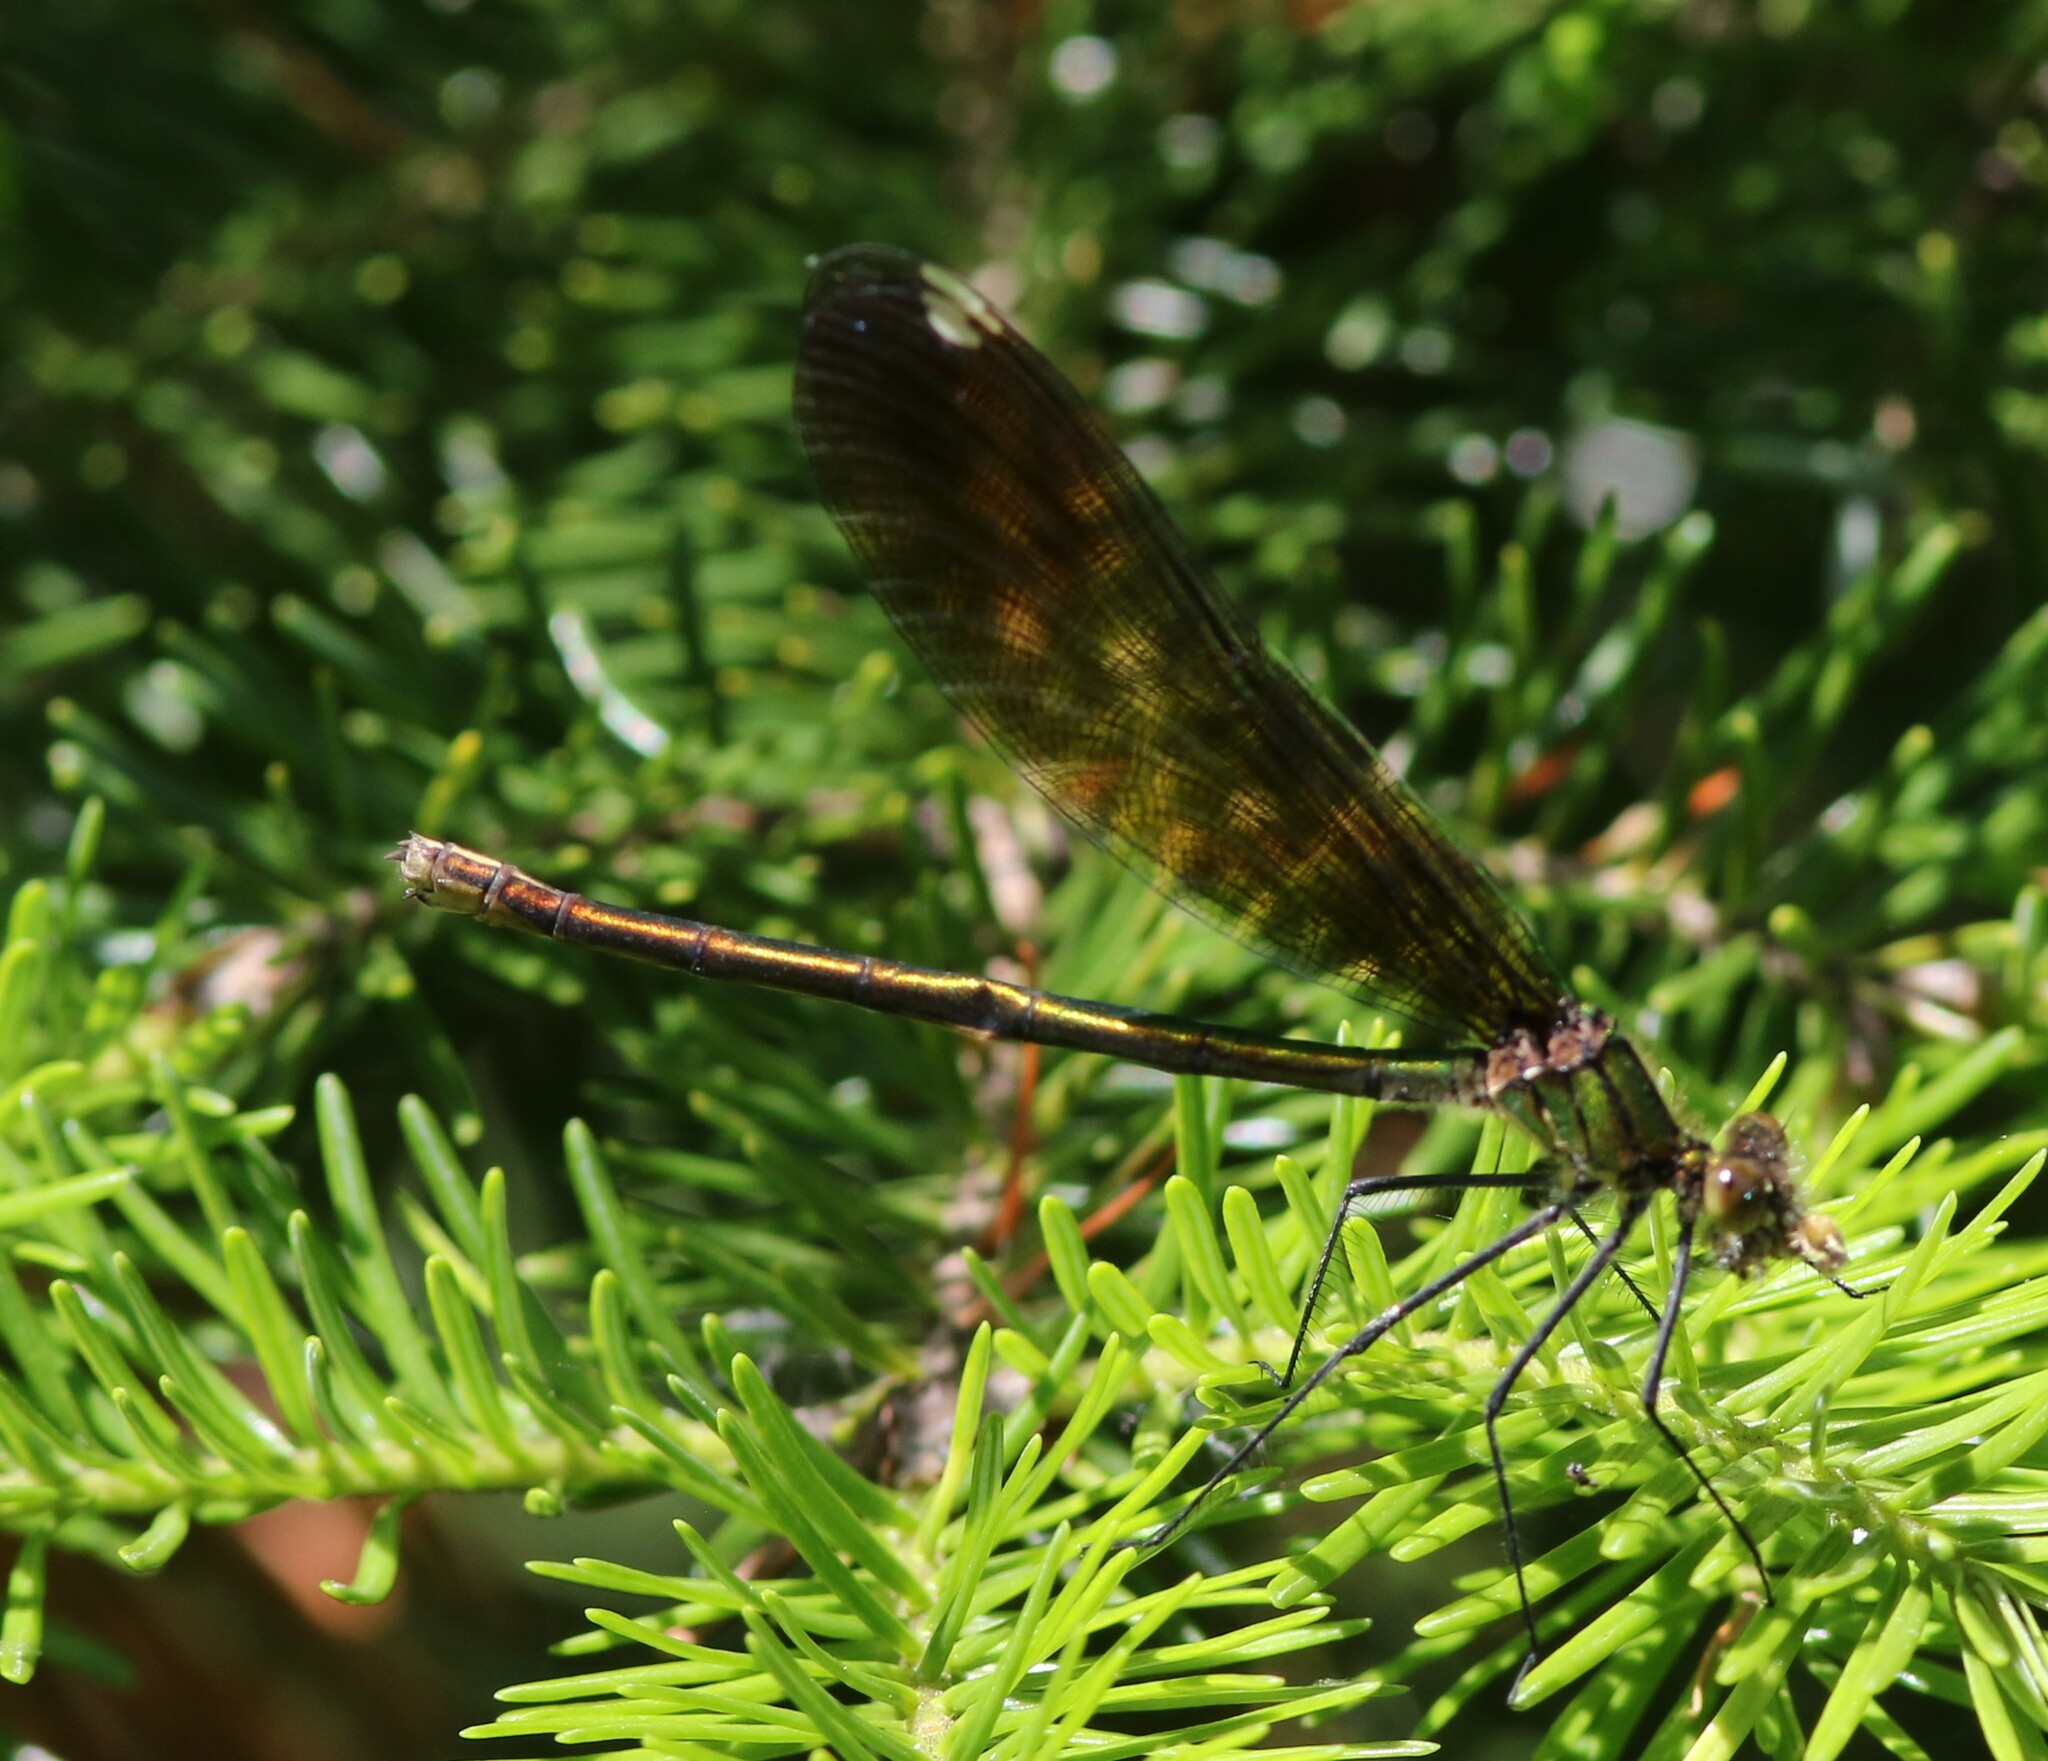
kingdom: Animalia
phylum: Arthropoda
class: Insecta
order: Odonata
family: Calopterygidae
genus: Calopteryx
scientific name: Calopteryx aequabilis
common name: River jewelwing
